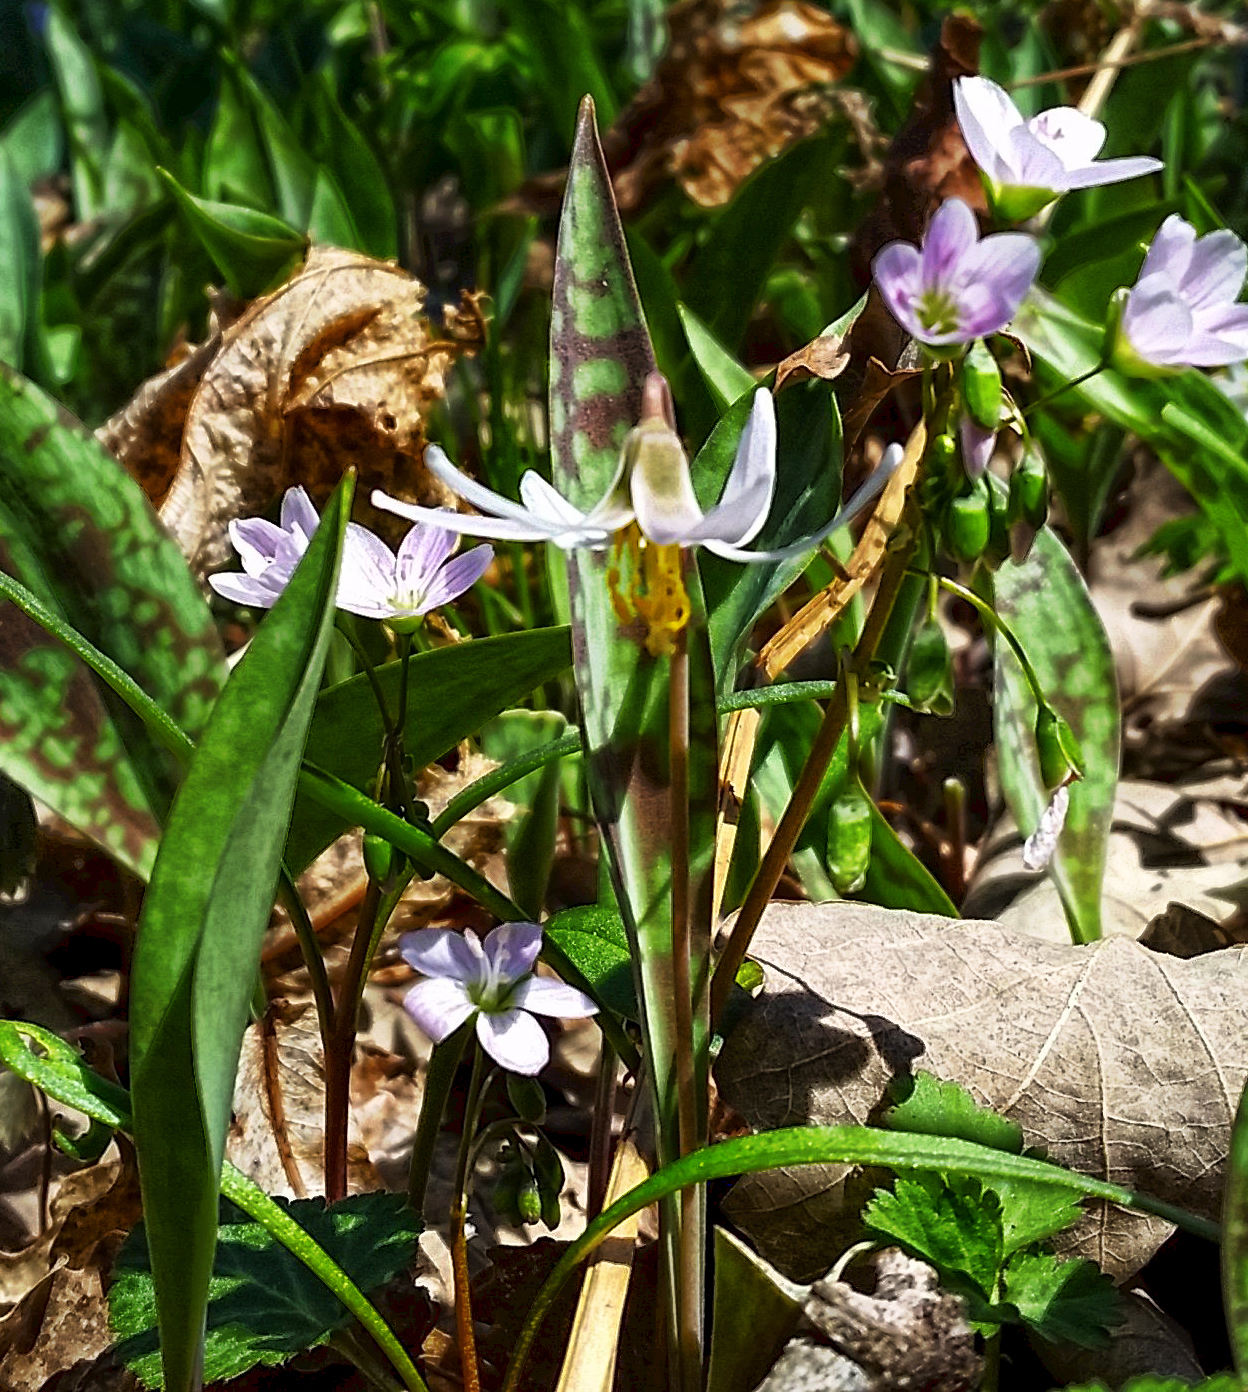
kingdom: Plantae
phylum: Tracheophyta
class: Liliopsida
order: Liliales
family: Liliaceae
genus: Erythronium
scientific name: Erythronium albidum
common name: White trout-lily
